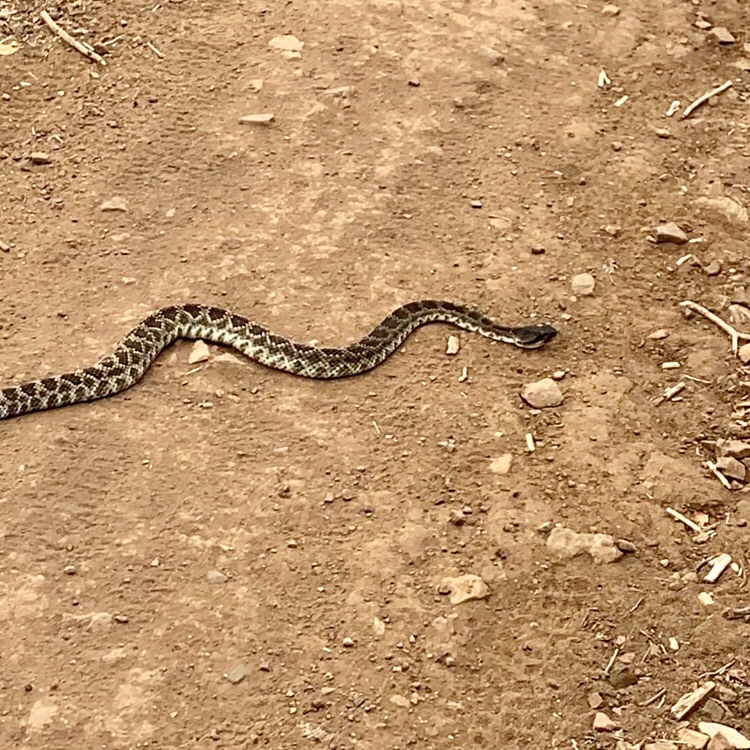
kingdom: Animalia
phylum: Chordata
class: Squamata
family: Viperidae
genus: Crotalus
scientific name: Crotalus oreganus
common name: Abyssus
